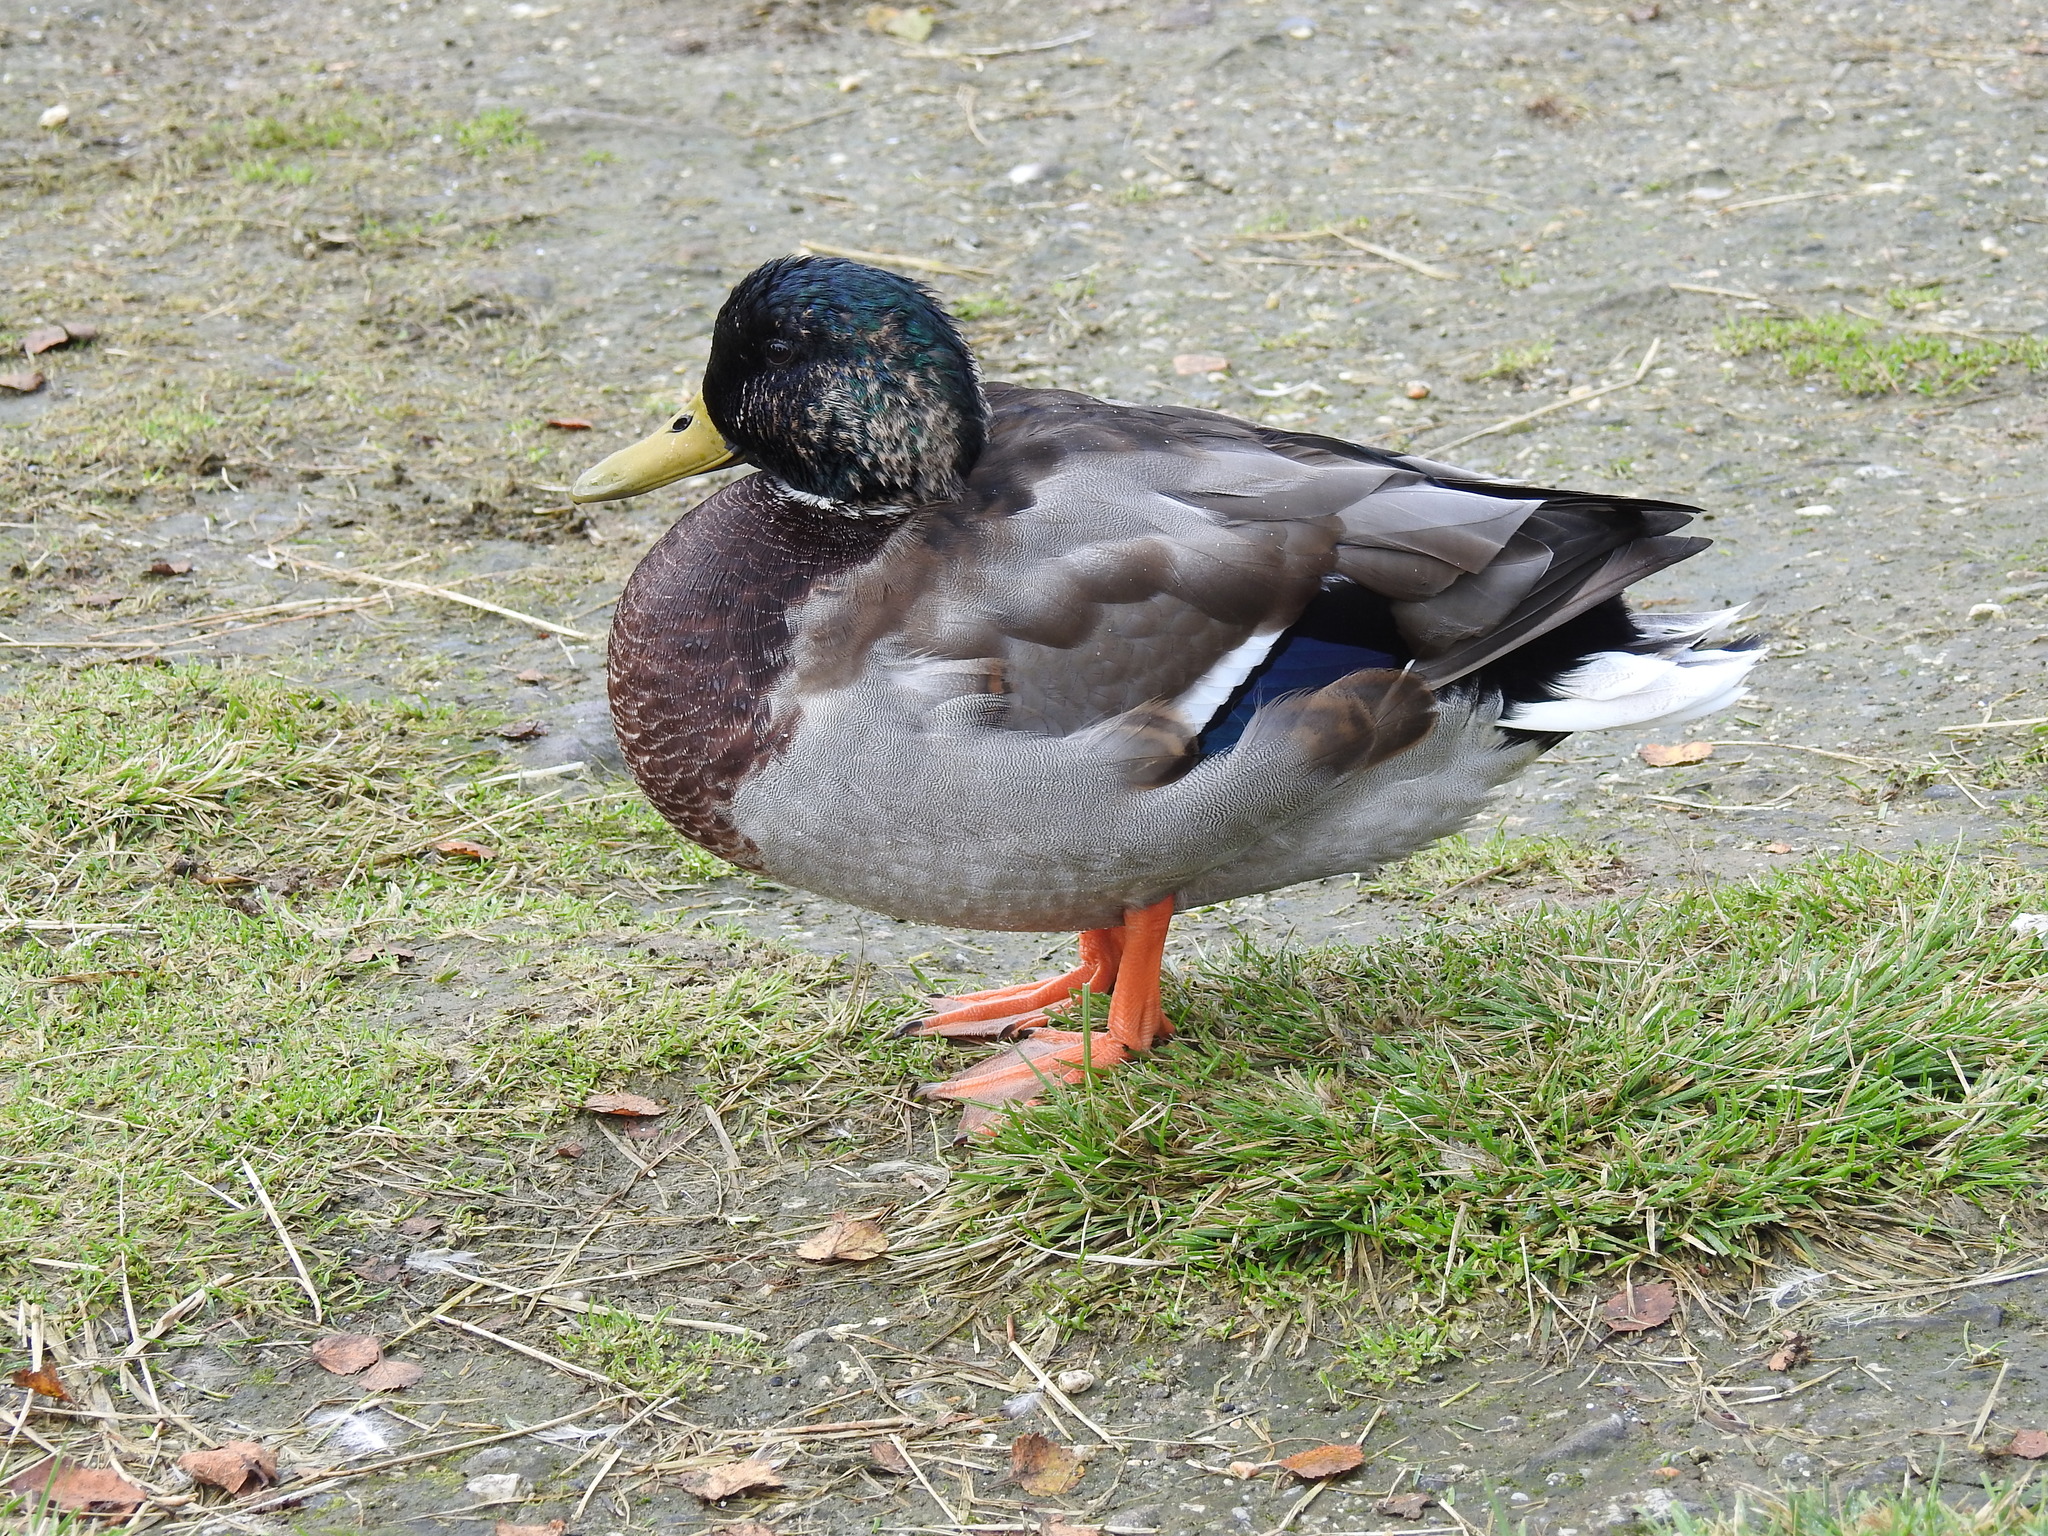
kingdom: Animalia
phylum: Chordata
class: Aves
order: Anseriformes
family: Anatidae
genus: Anas
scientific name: Anas platyrhynchos
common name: Mallard
